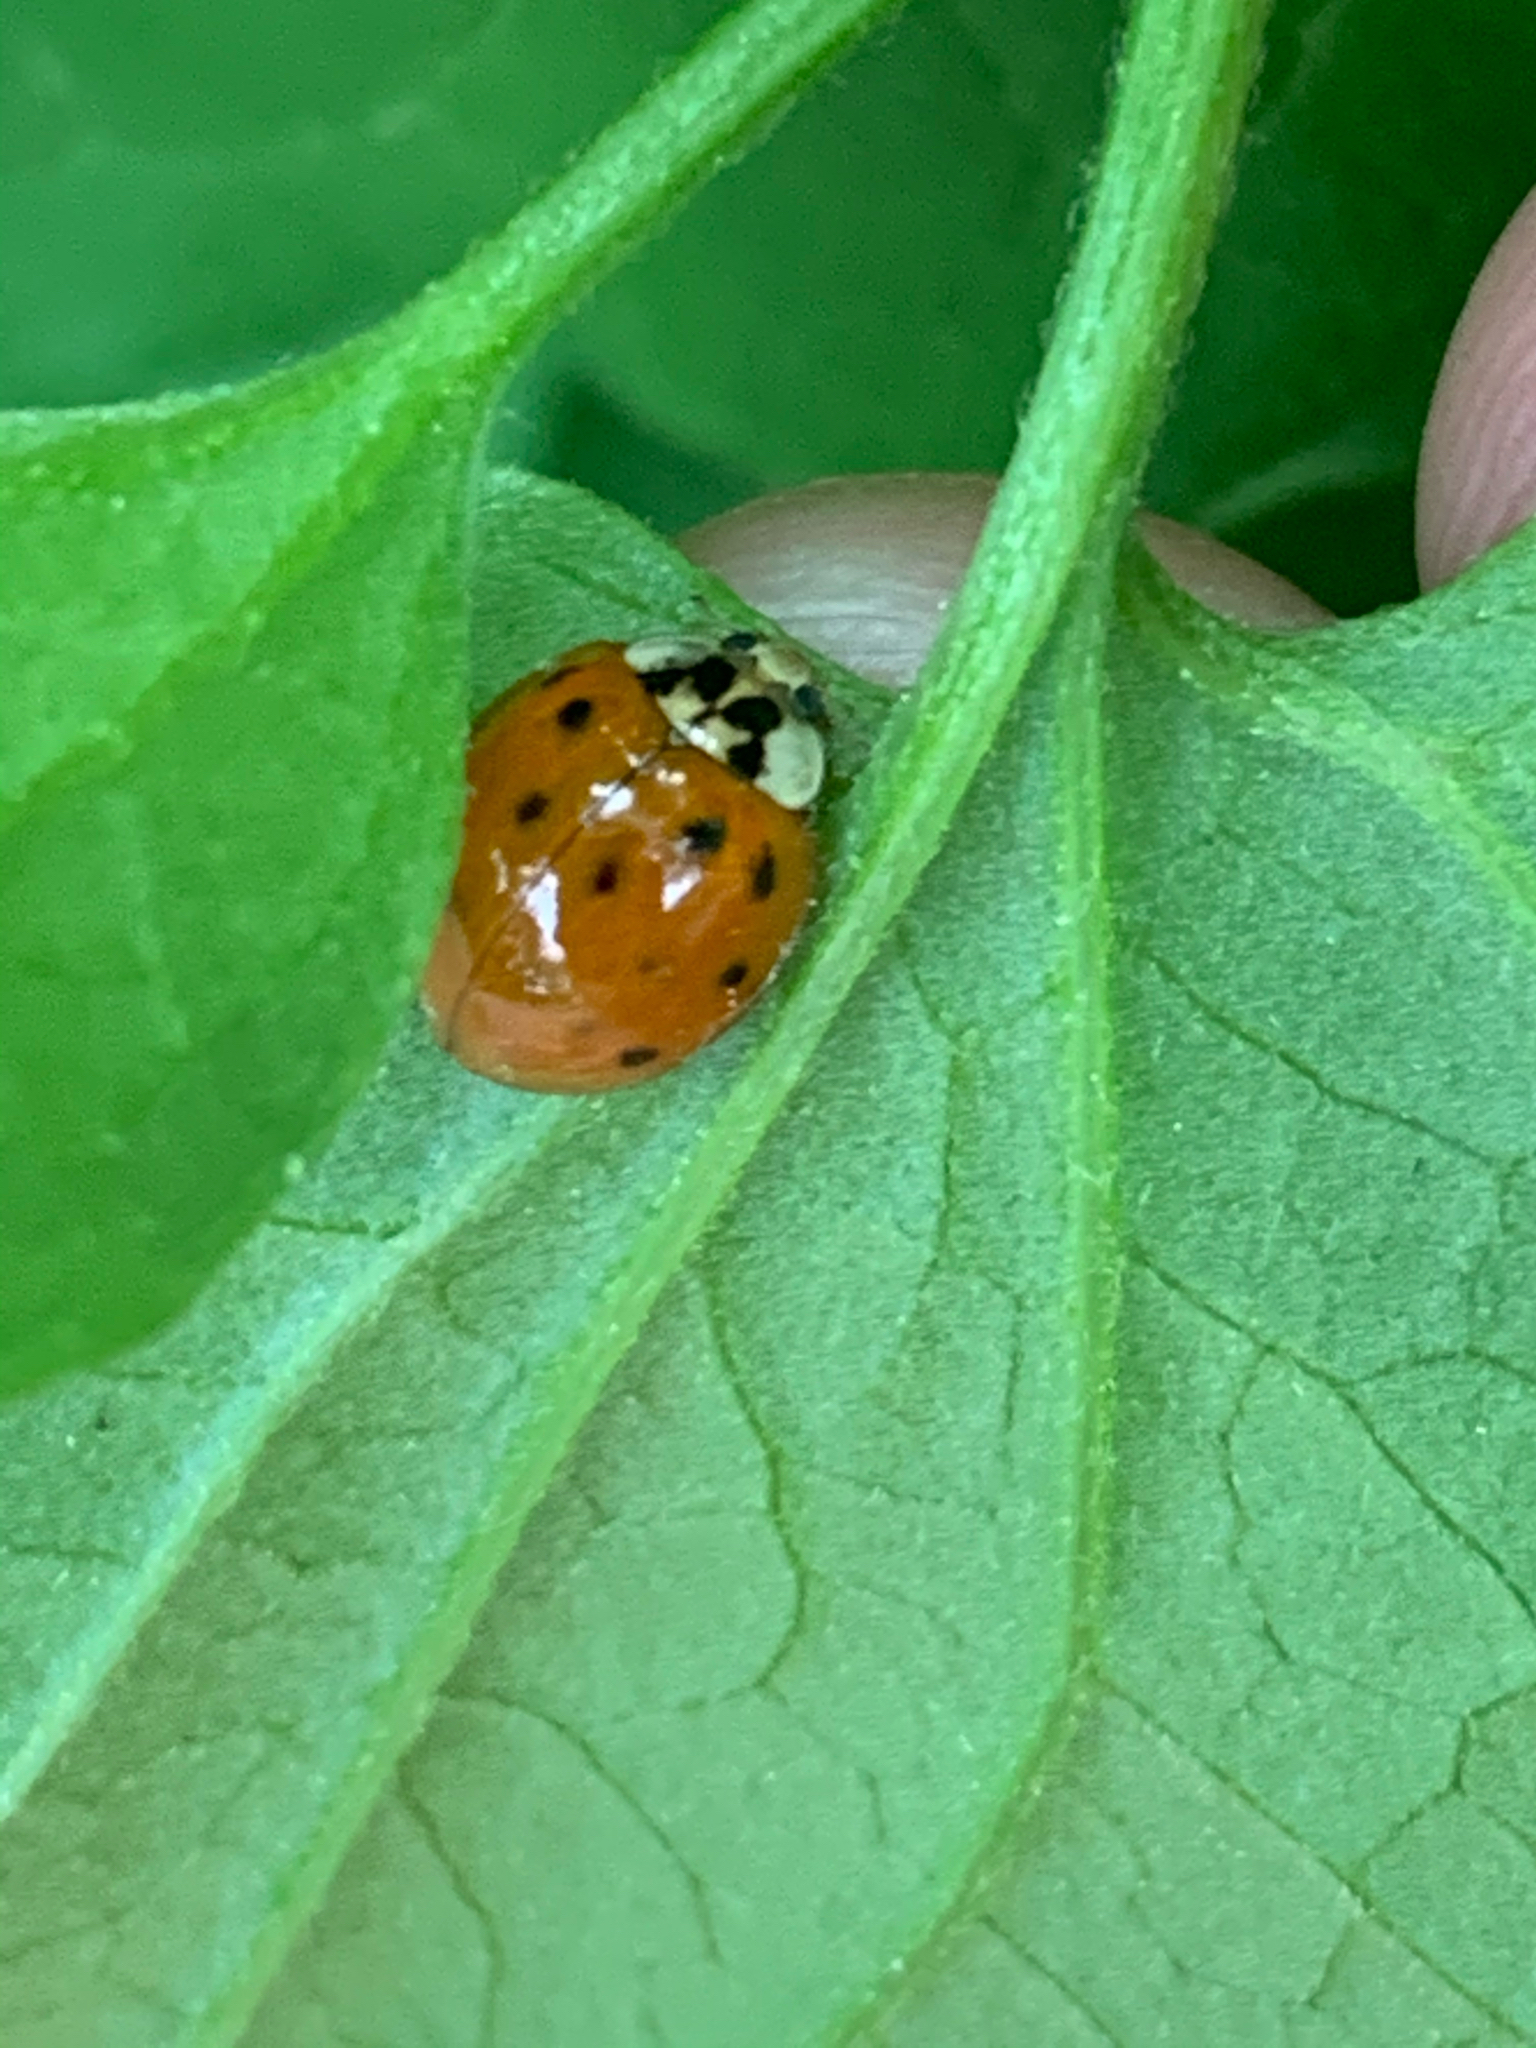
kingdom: Animalia
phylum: Arthropoda
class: Insecta
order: Coleoptera
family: Coccinellidae
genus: Harmonia
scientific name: Harmonia axyridis
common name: Harlequin ladybird
